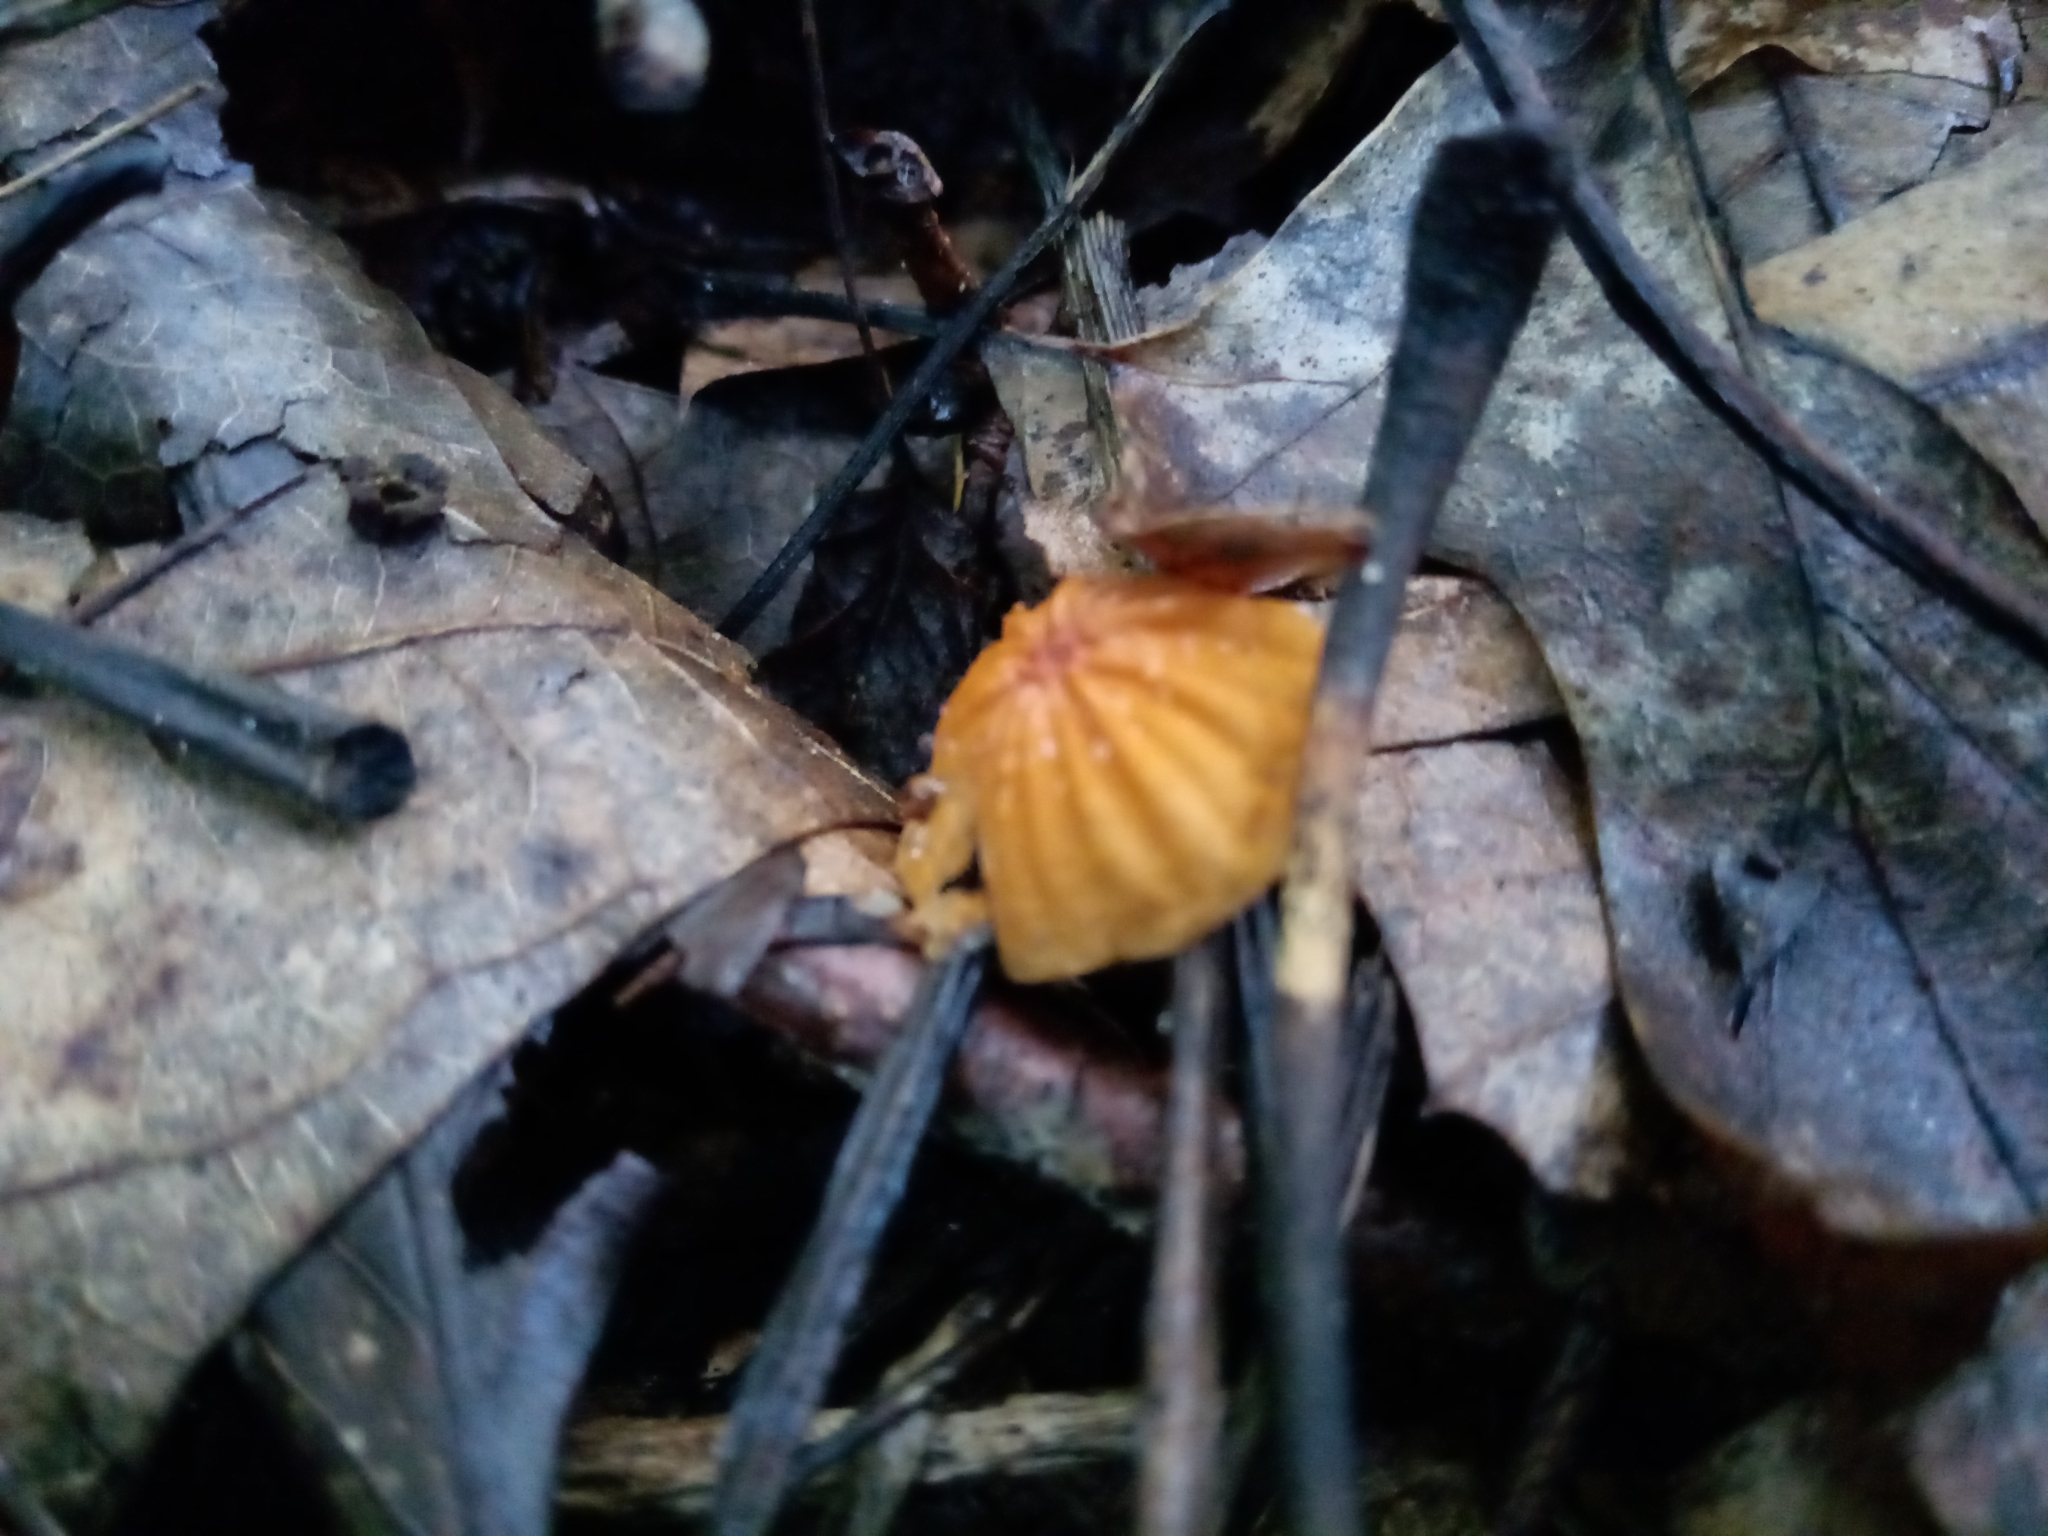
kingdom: Fungi
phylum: Basidiomycota
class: Agaricomycetes
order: Agaricales
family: Marasmiaceae
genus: Marasmius
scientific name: Marasmius siccus
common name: Orange pinwheel
